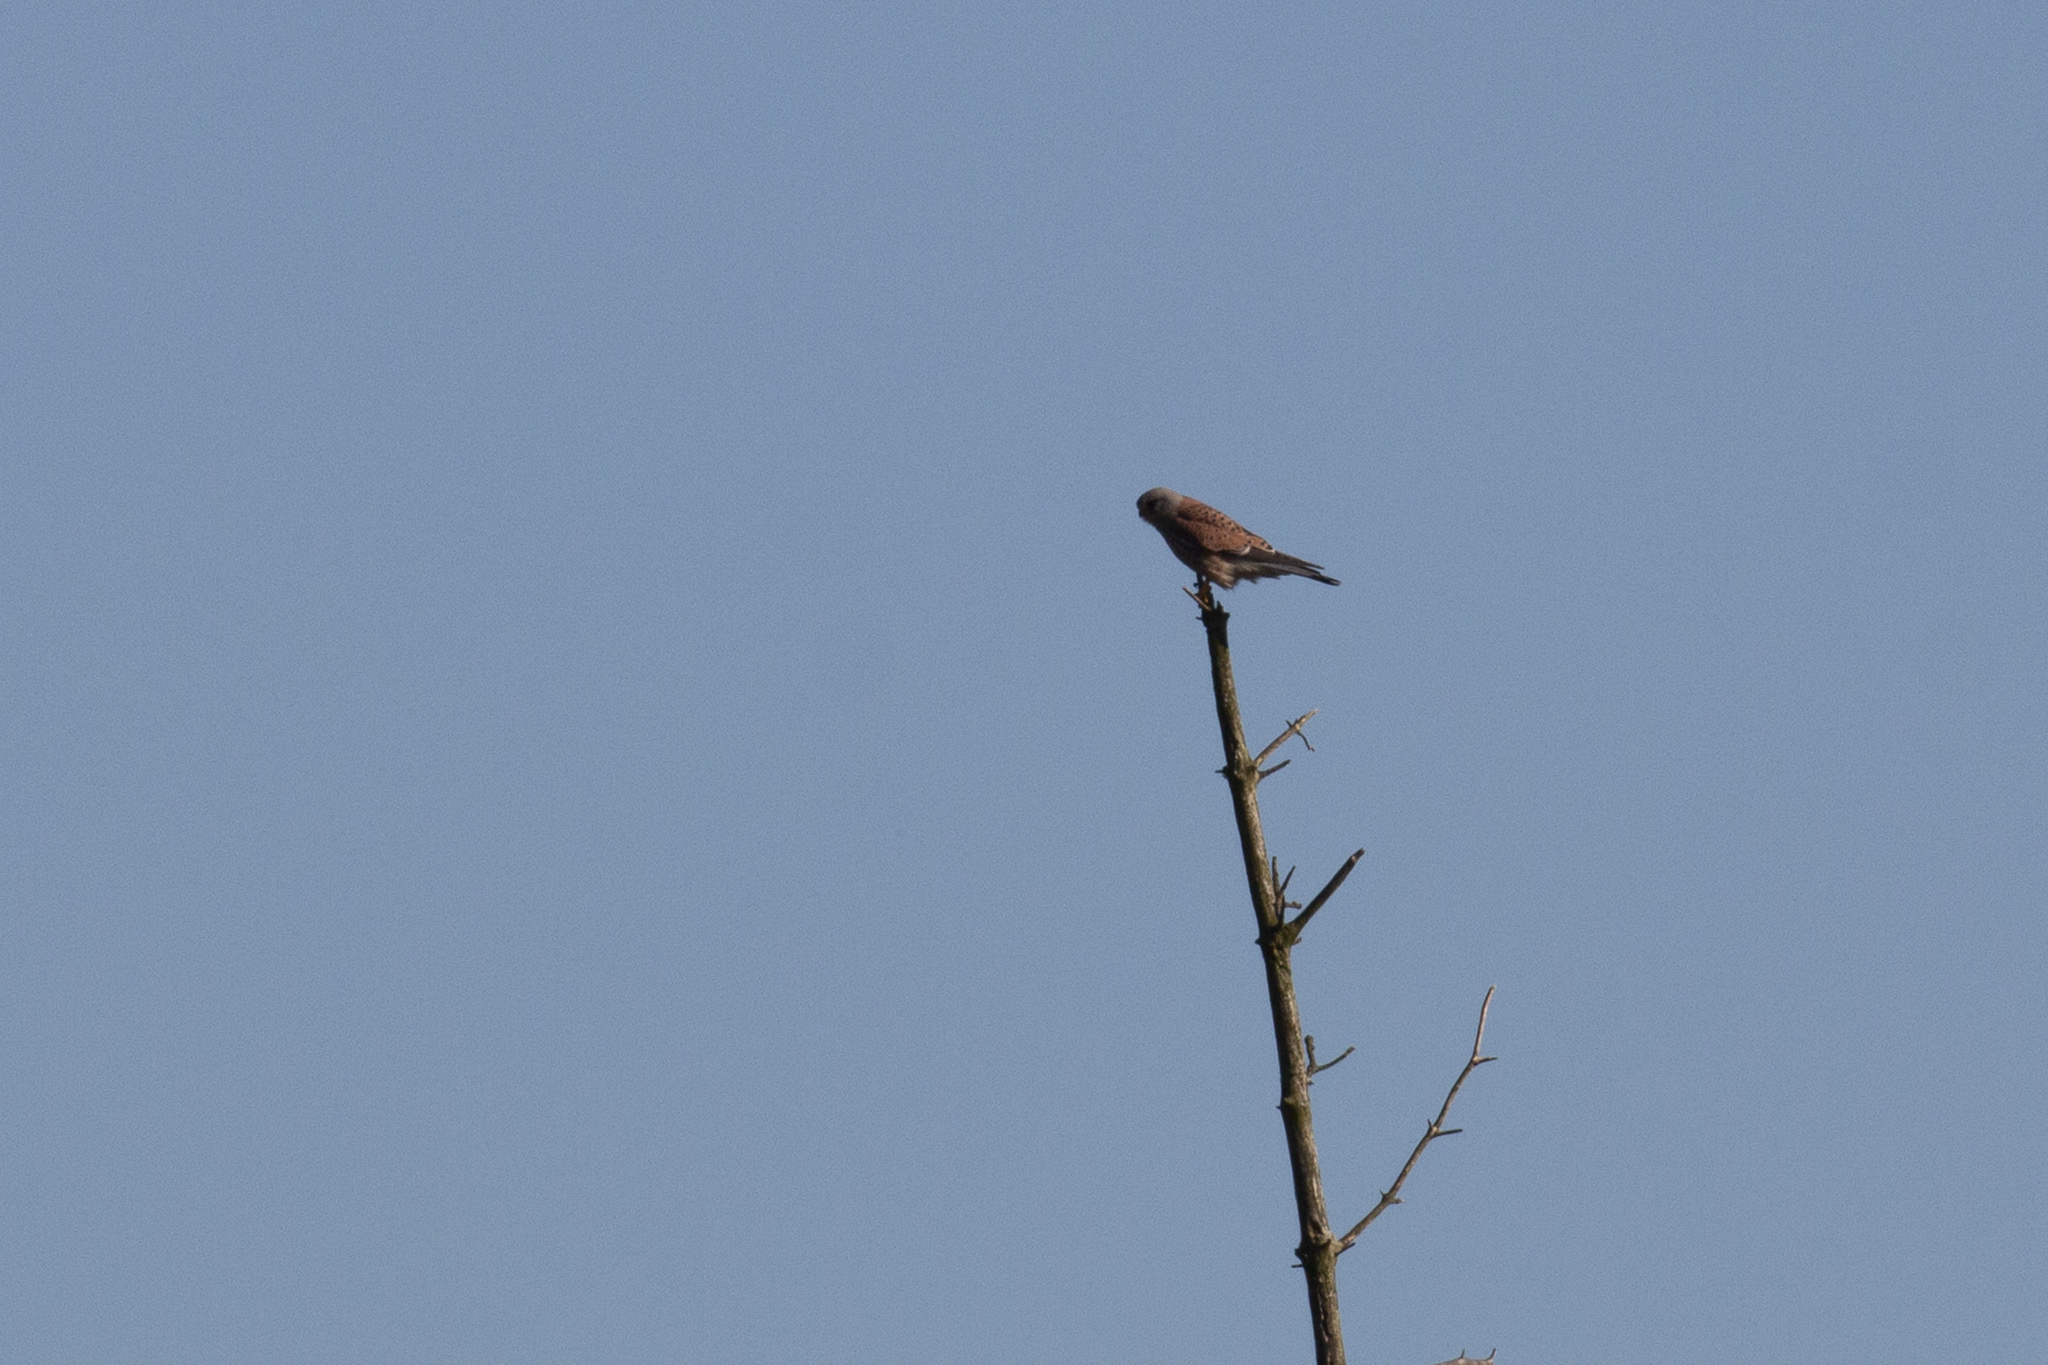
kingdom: Animalia
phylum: Chordata
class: Aves
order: Falconiformes
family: Falconidae
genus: Falco
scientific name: Falco tinnunculus
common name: Common kestrel
